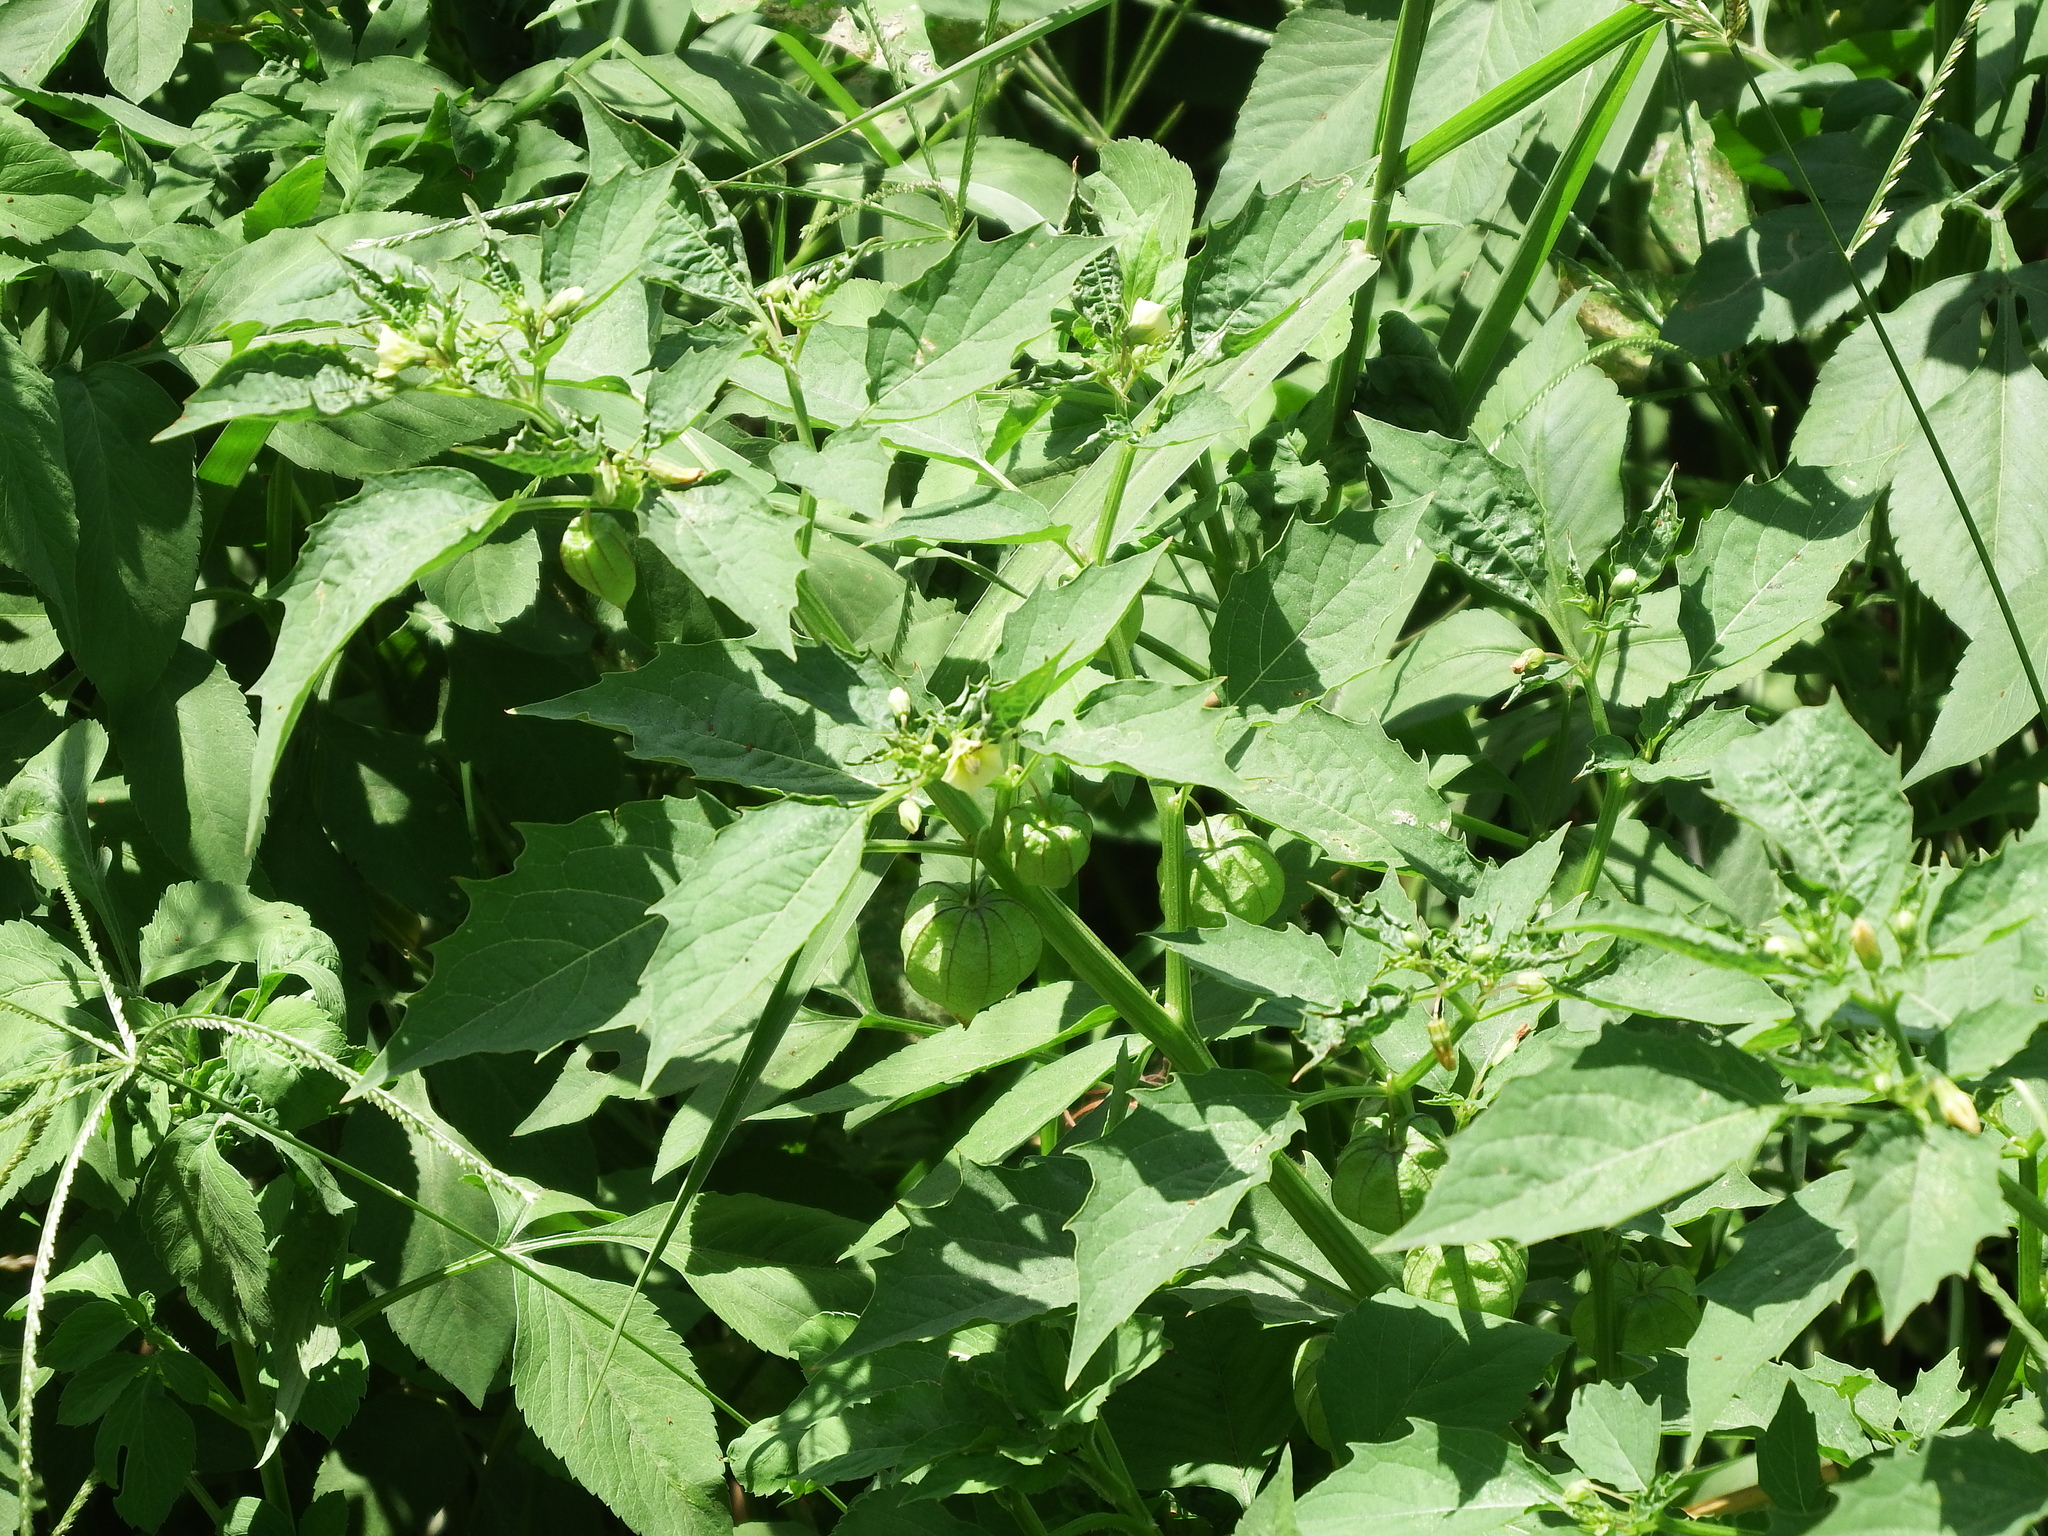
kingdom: Plantae
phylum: Tracheophyta
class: Magnoliopsida
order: Solanales
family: Solanaceae
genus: Physalis
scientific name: Physalis angulata
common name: Angular winter-cherry
